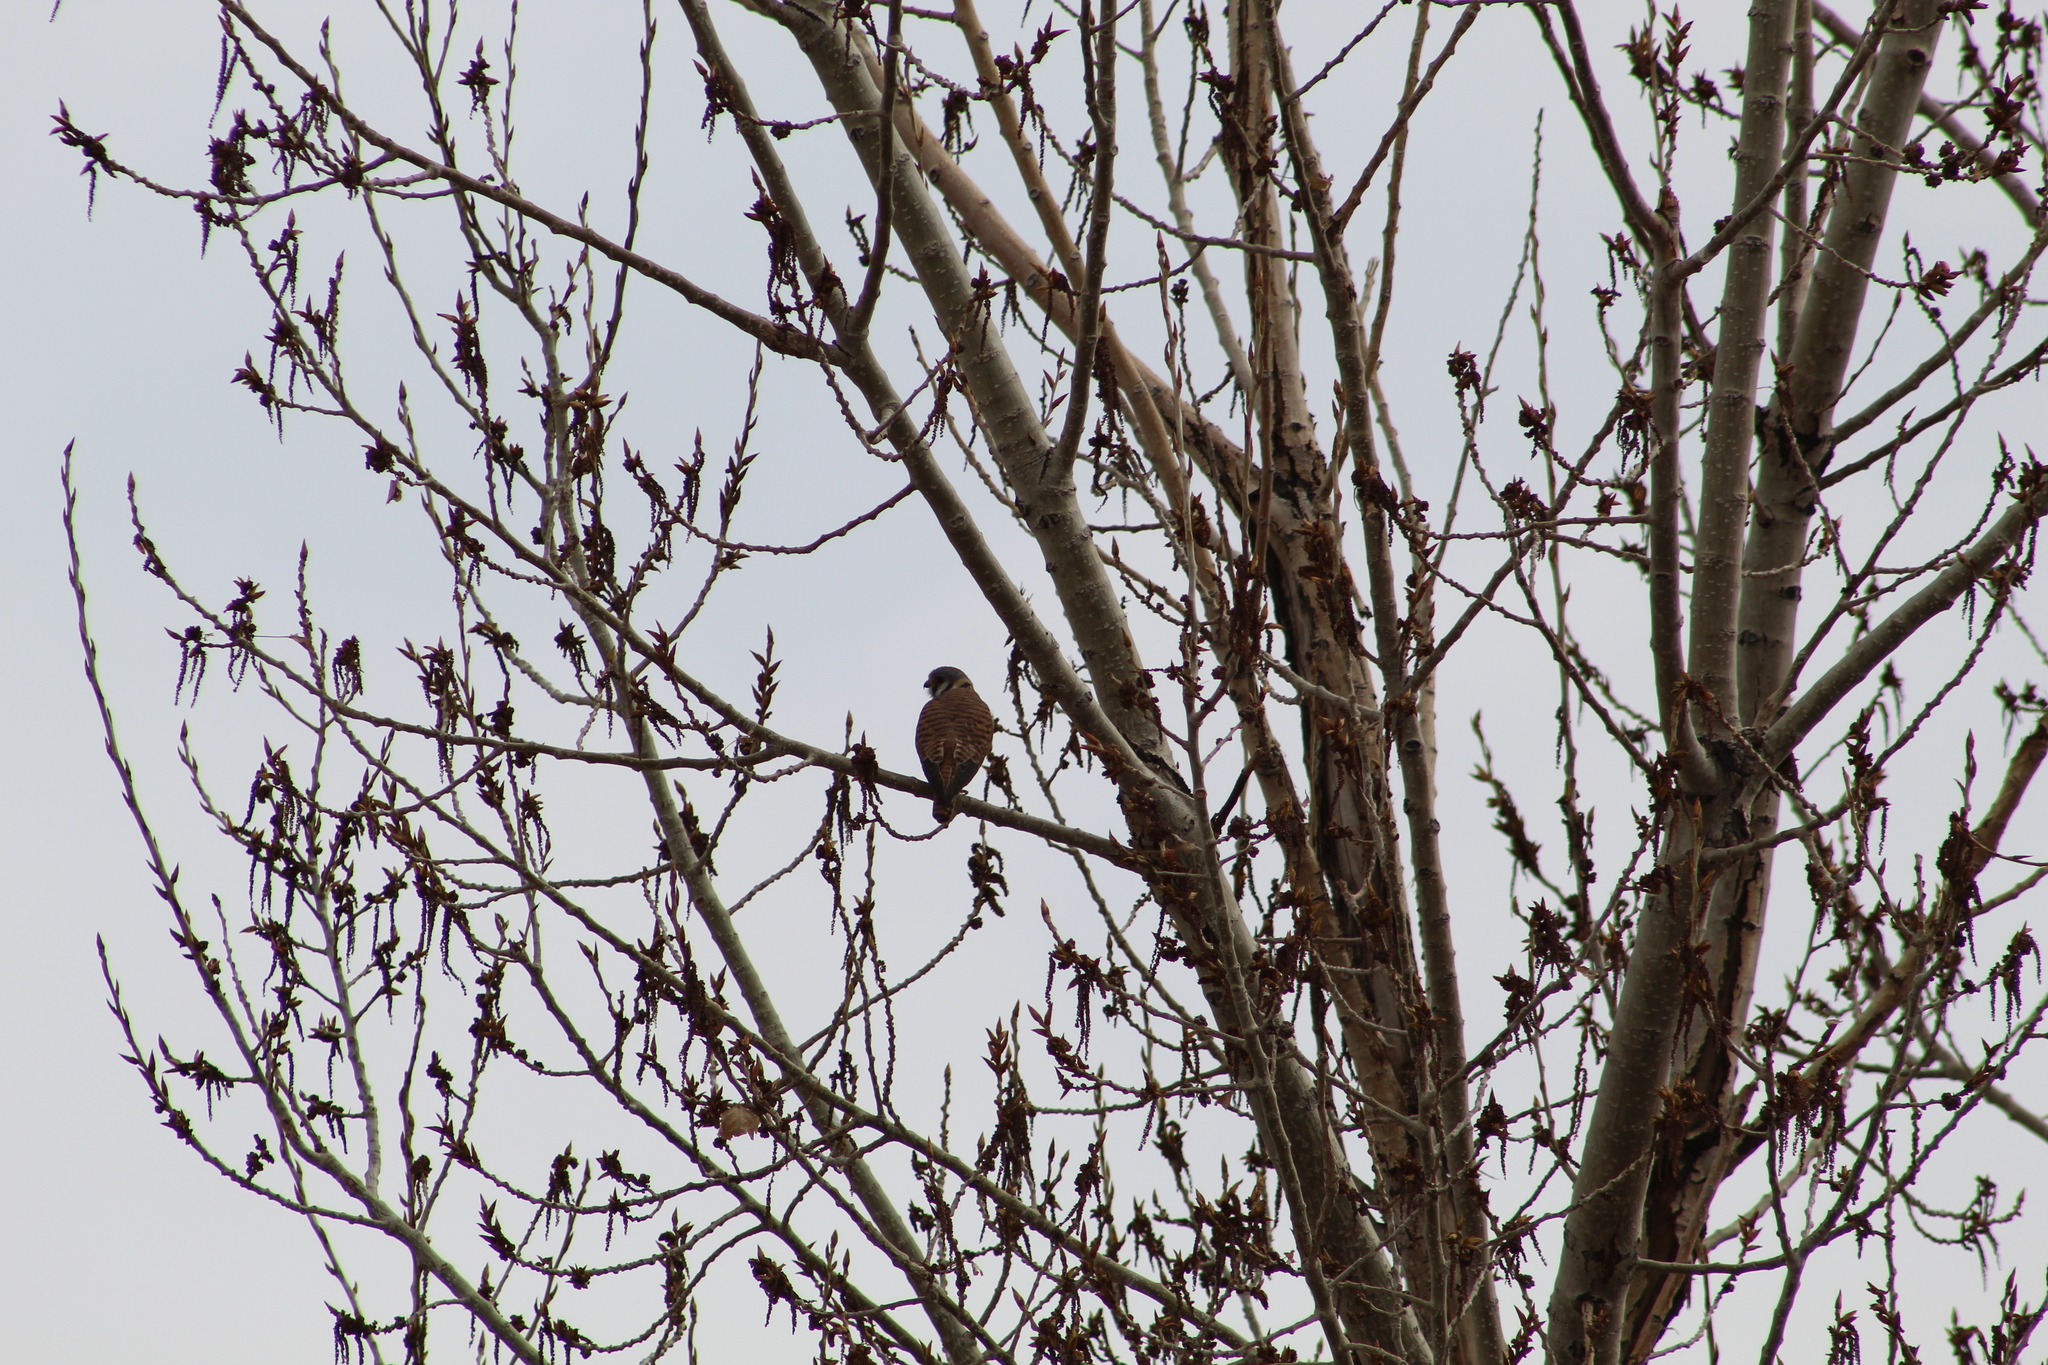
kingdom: Animalia
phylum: Chordata
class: Aves
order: Falconiformes
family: Falconidae
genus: Falco
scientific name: Falco sparverius
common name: American kestrel
